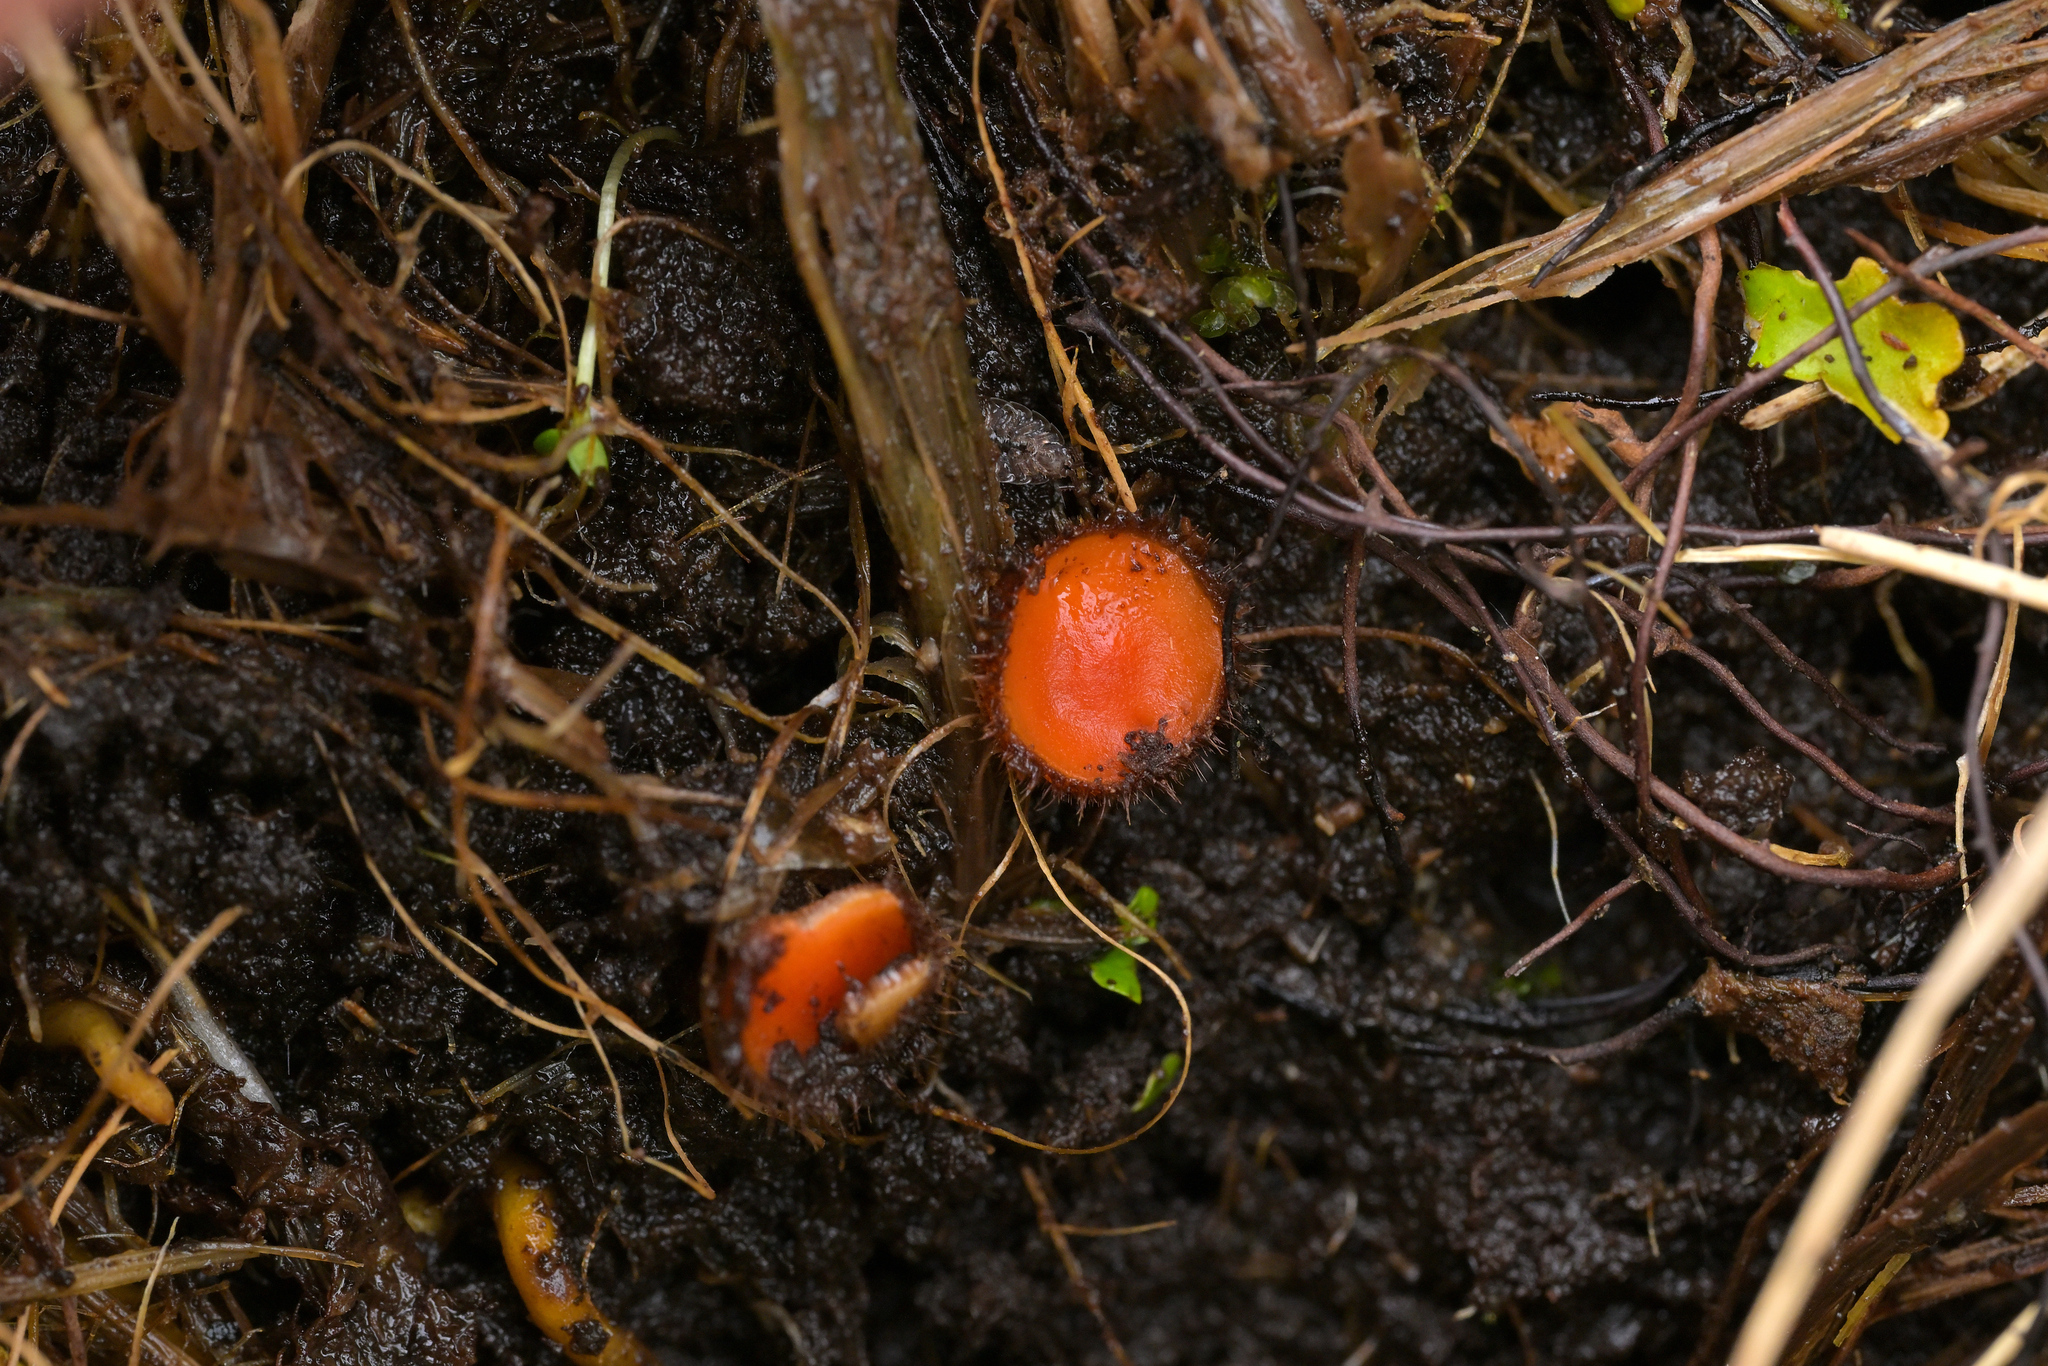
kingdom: Fungi
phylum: Ascomycota
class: Pezizomycetes
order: Pezizales
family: Pyronemataceae
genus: Scutellinia
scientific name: Scutellinia
